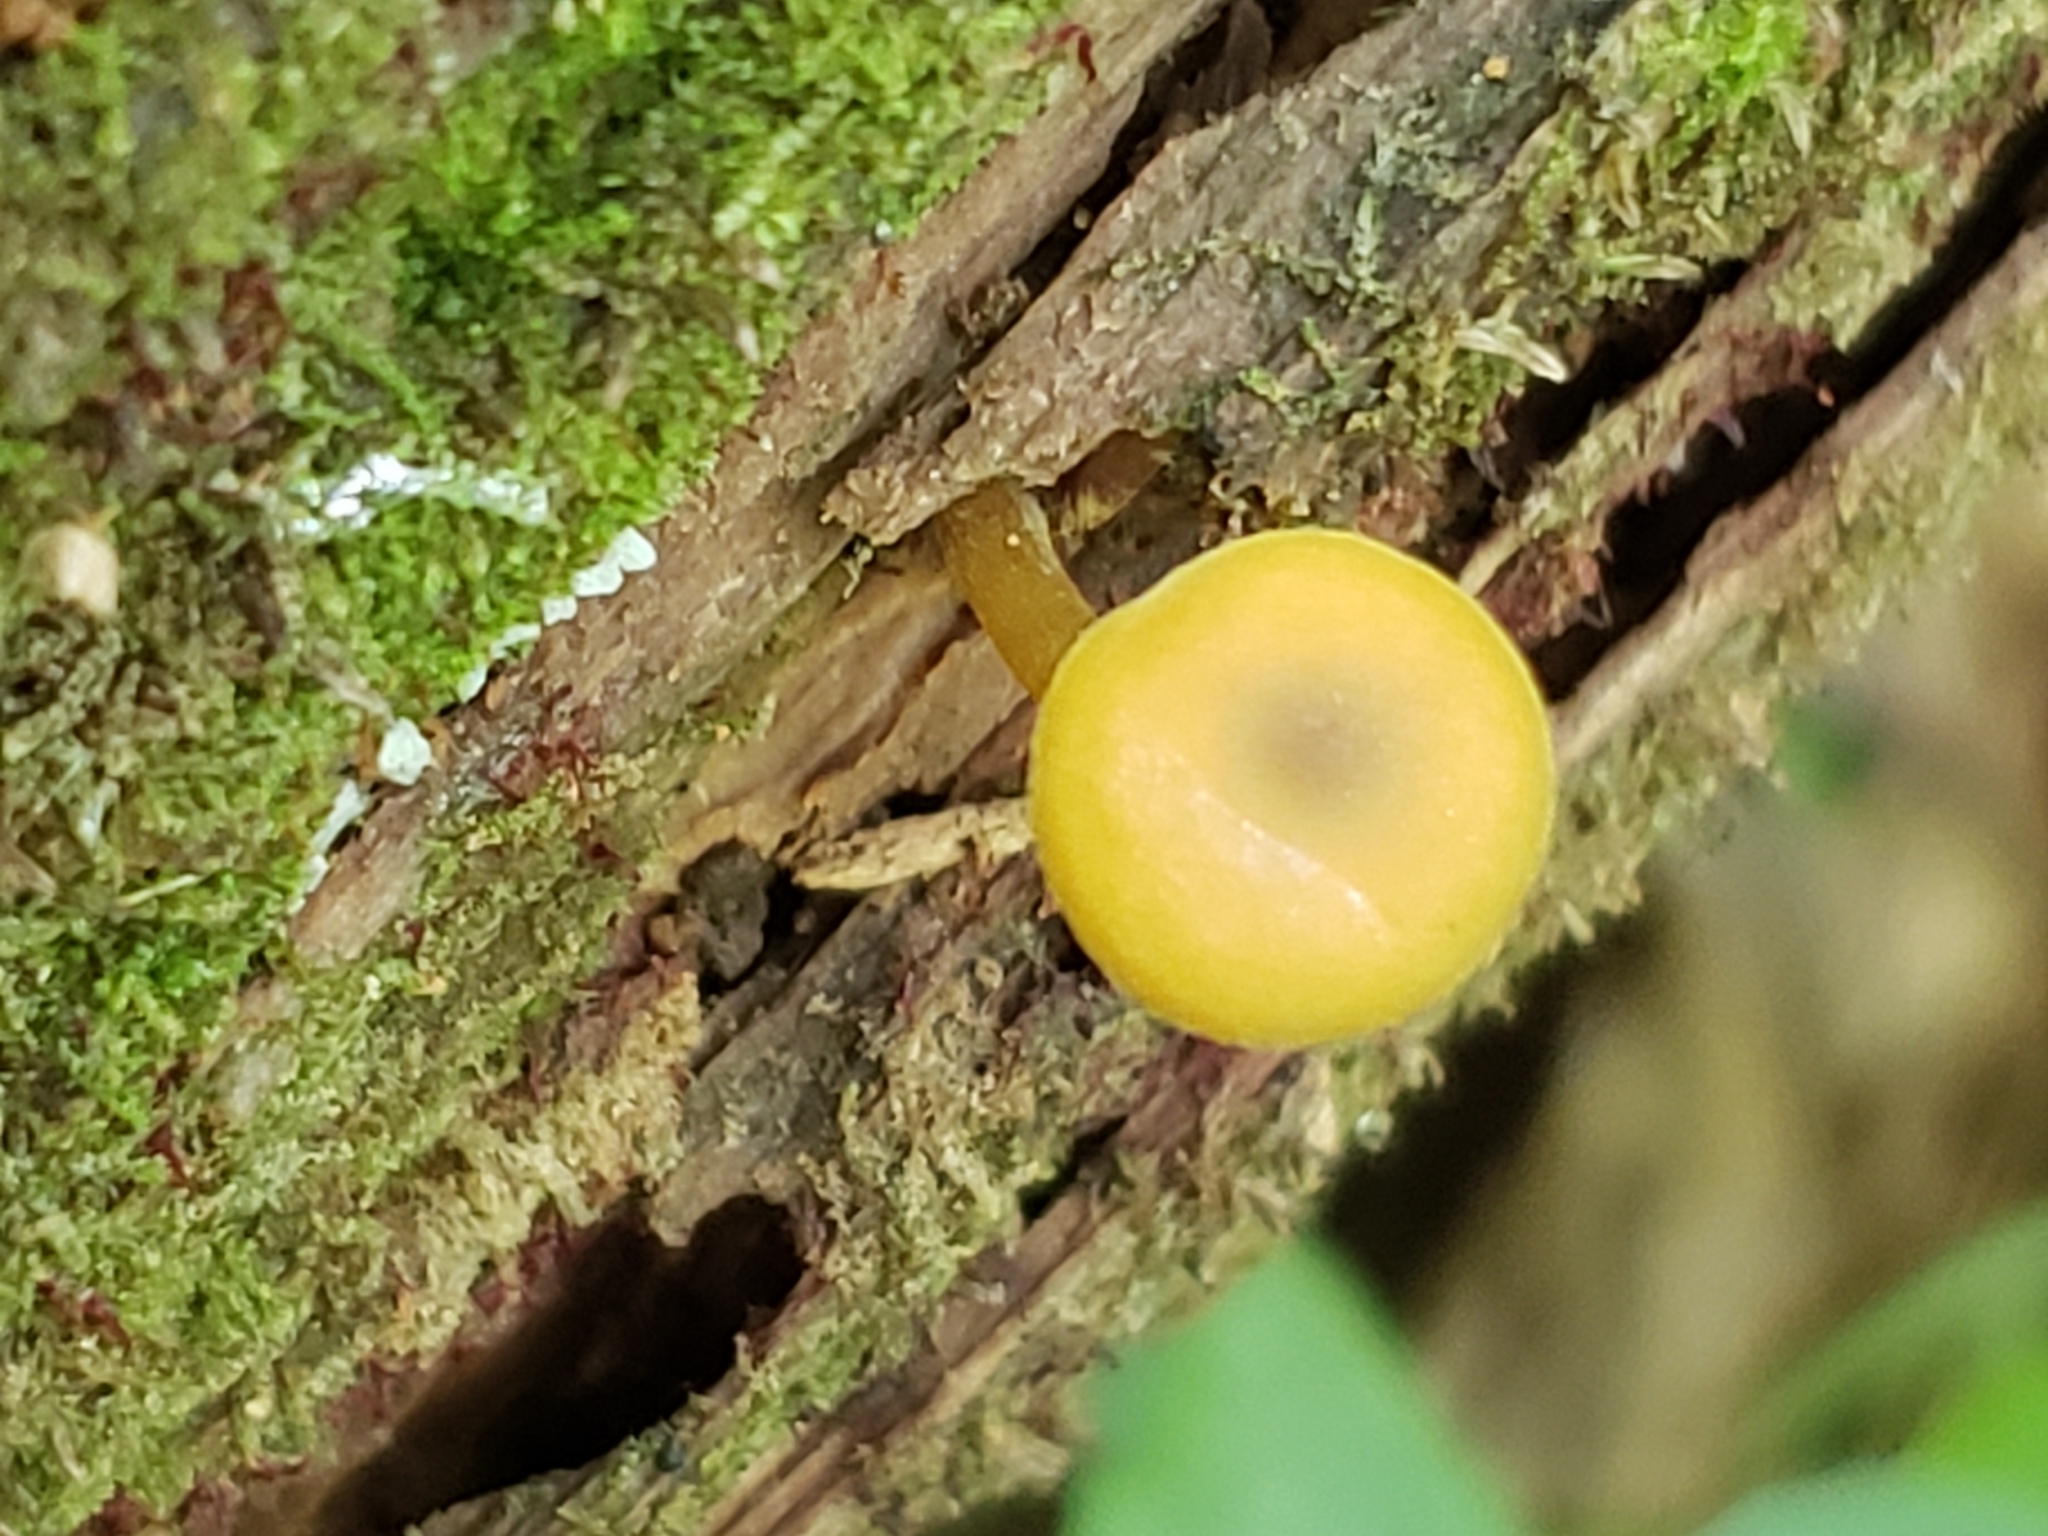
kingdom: Fungi
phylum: Basidiomycota
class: Agaricomycetes
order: Agaricales
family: Callistosporiaceae
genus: Callistosporium
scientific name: Callistosporium luteo-olivaceum
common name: Olive lute
